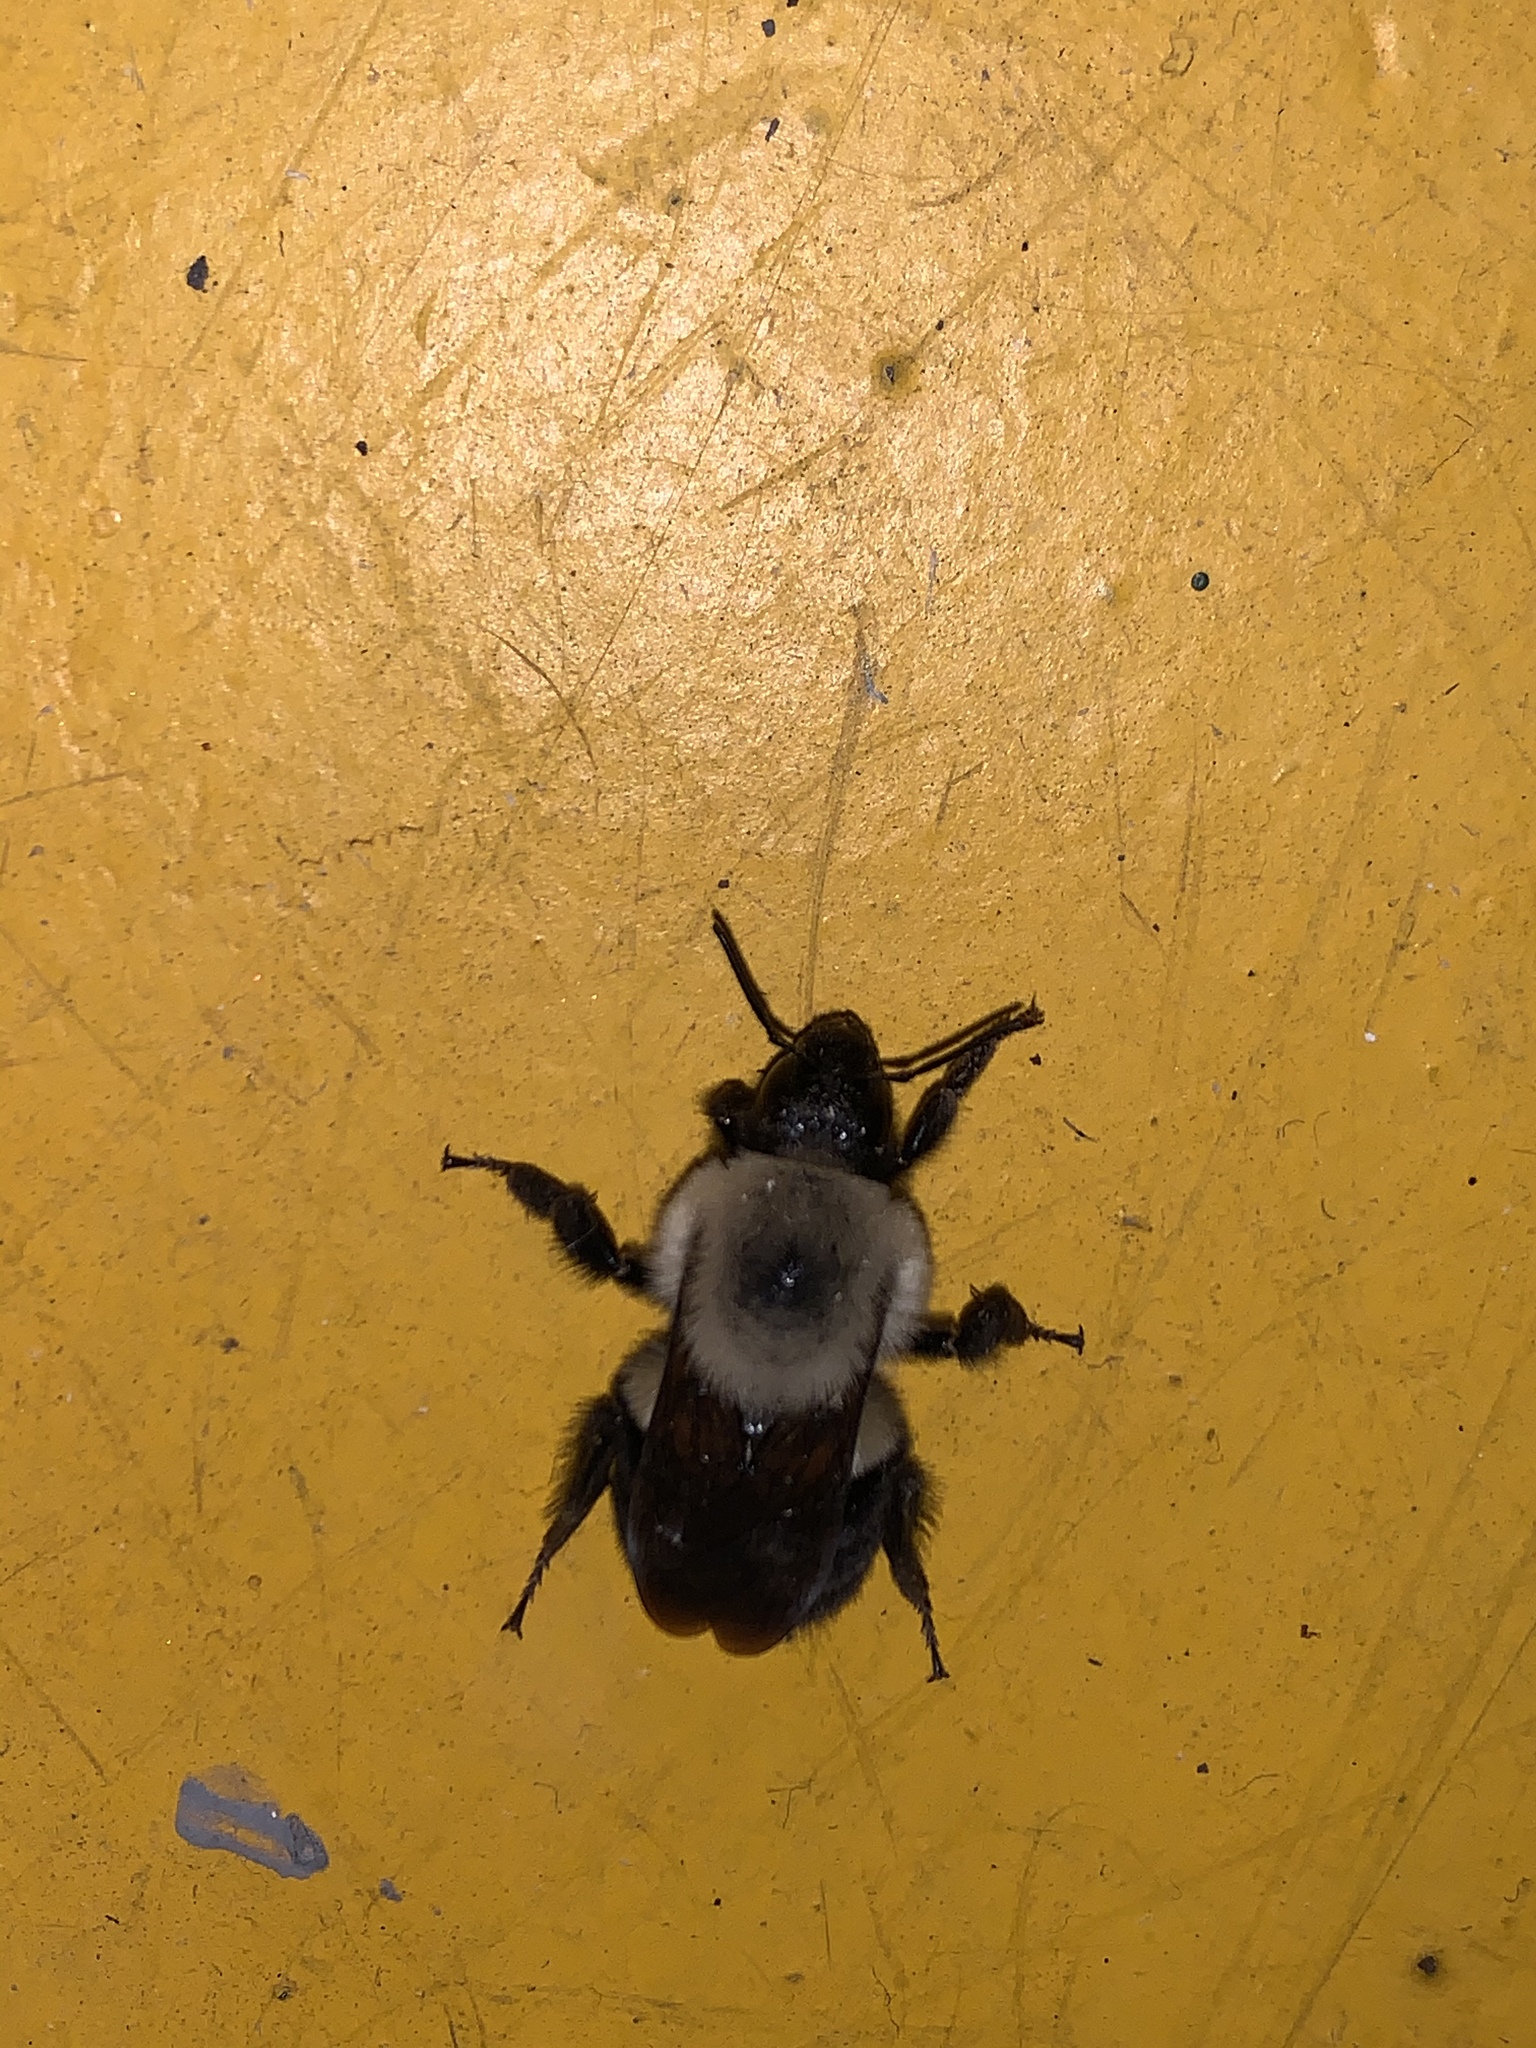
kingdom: Animalia
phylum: Arthropoda
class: Insecta
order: Hymenoptera
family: Apidae
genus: Bombus
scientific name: Bombus bimaculatus
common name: Two-spotted bumble bee
